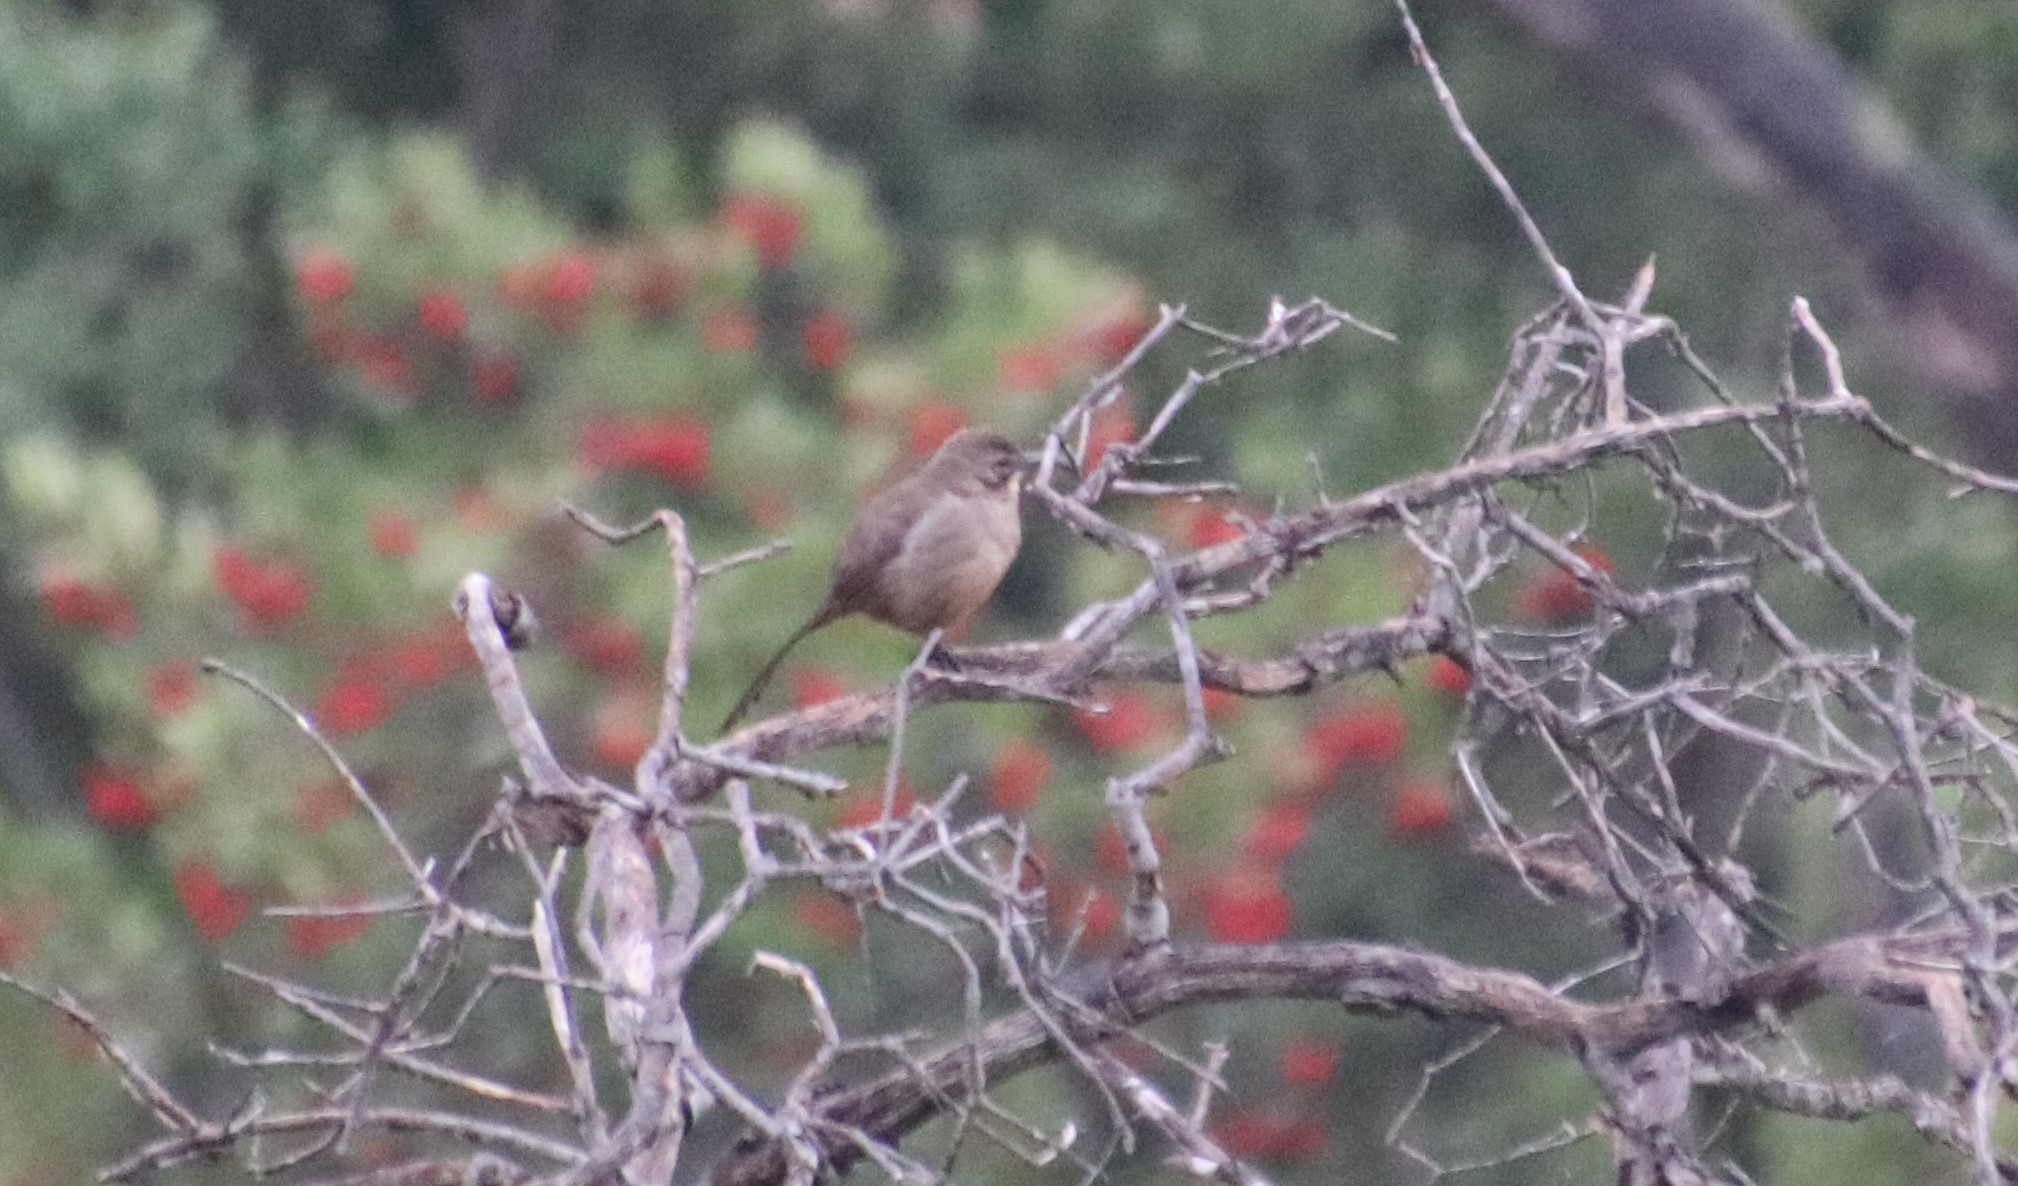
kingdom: Animalia
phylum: Chordata
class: Aves
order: Passeriformes
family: Mimidae
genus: Toxostoma
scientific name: Toxostoma redivivum
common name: California thrasher
